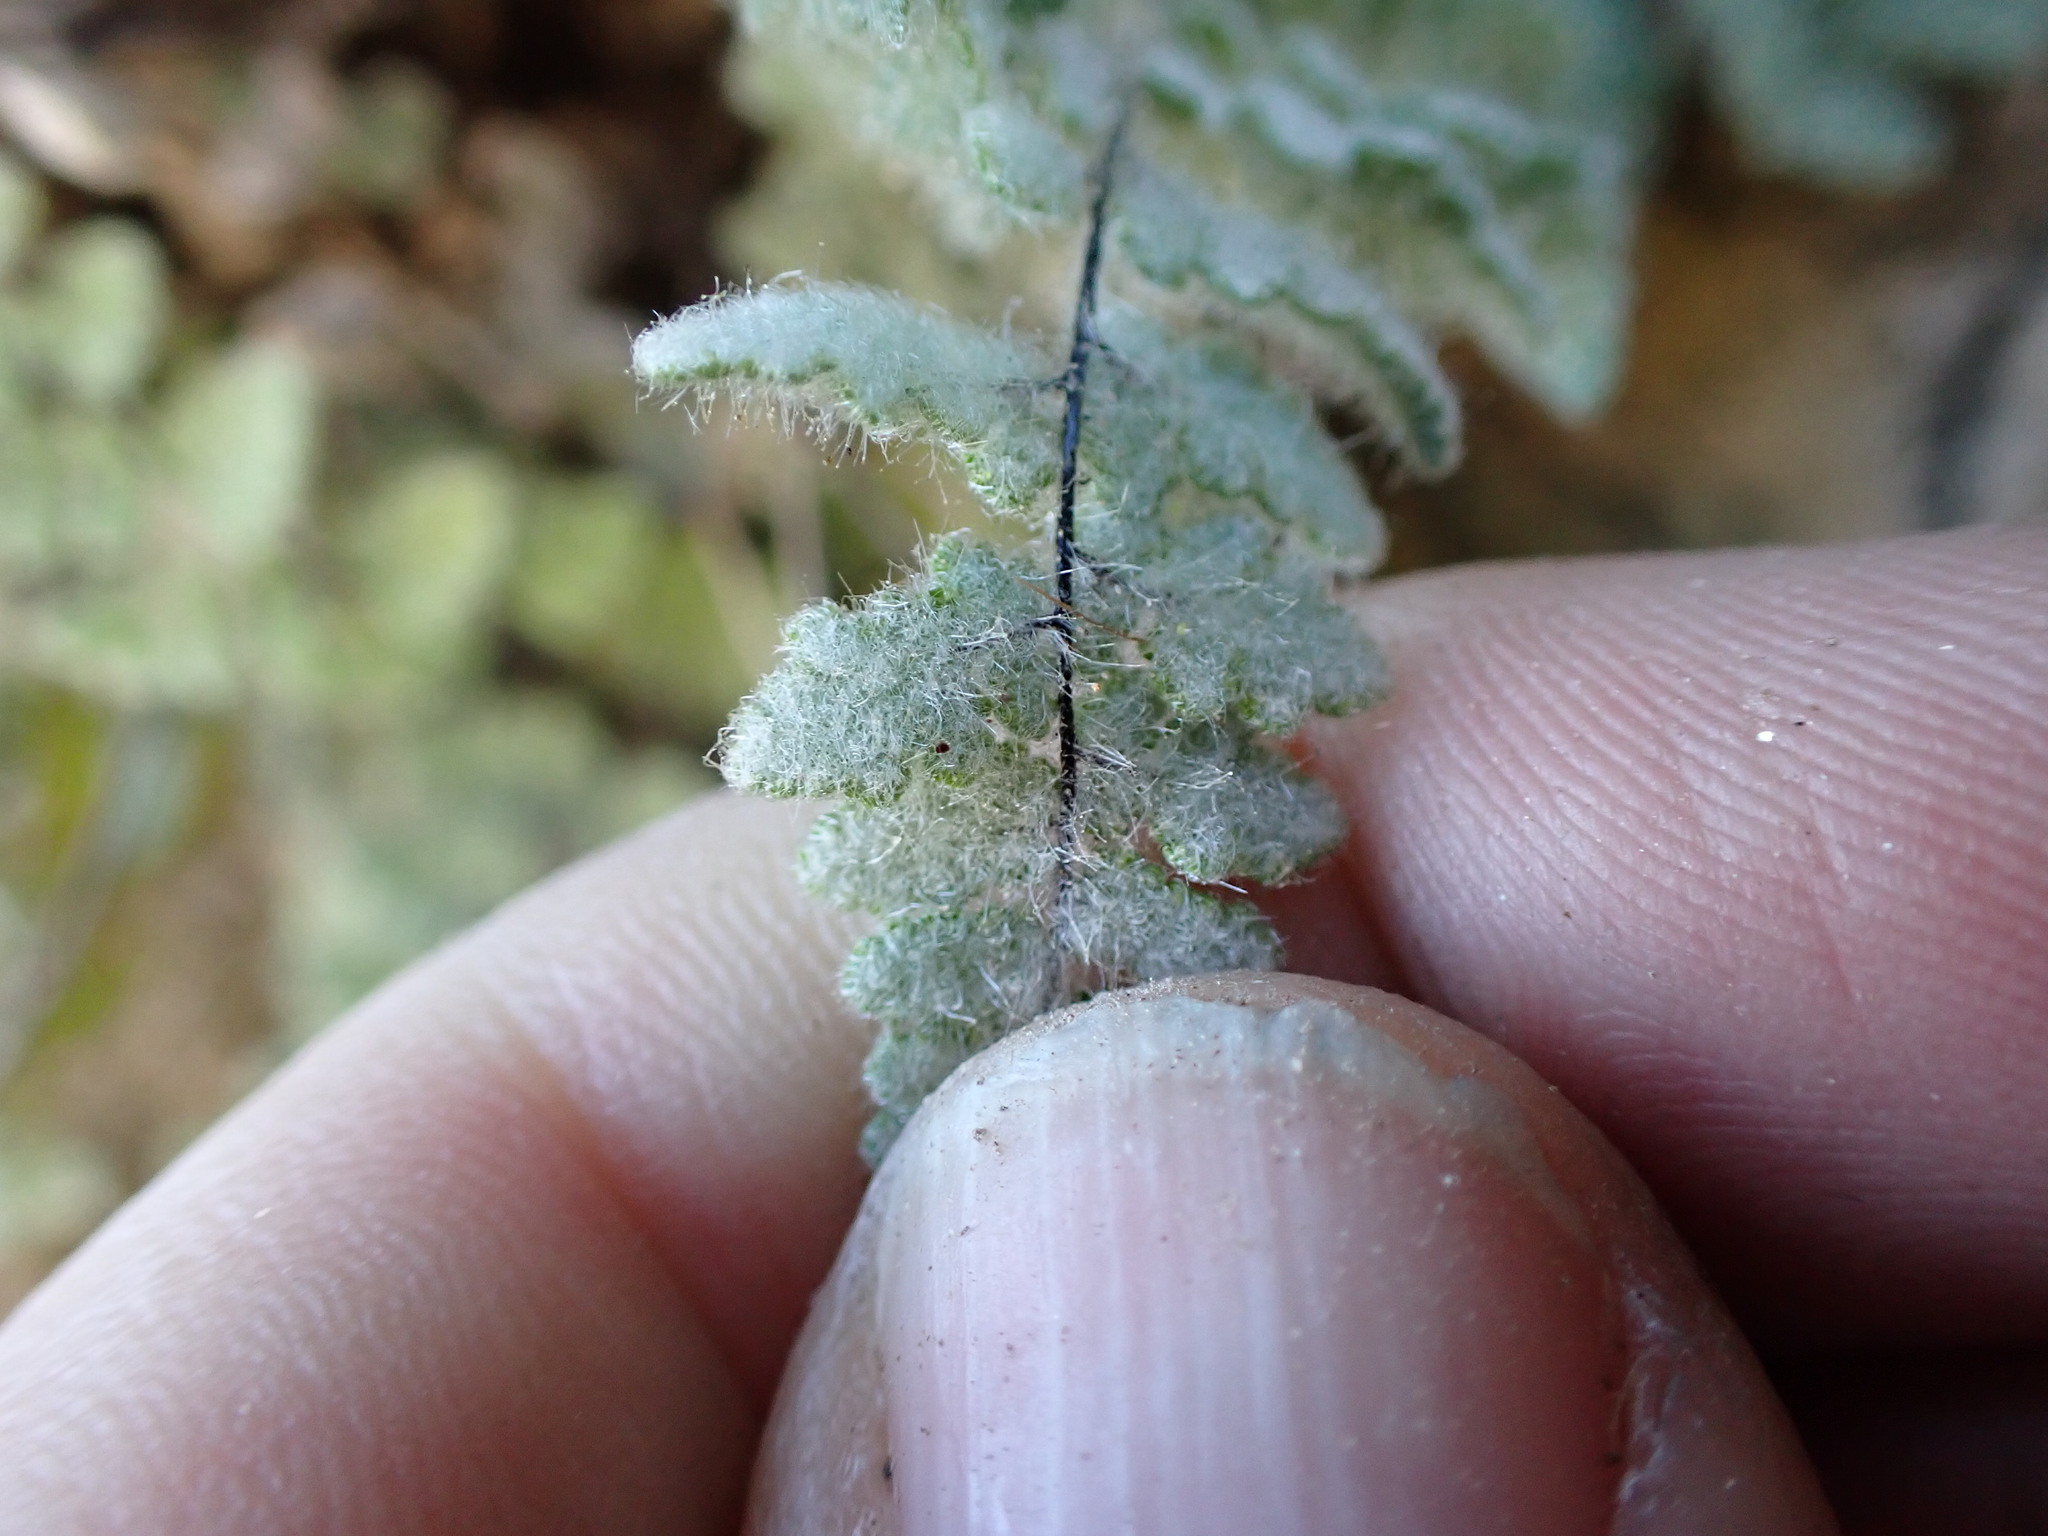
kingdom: Plantae
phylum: Tracheophyta
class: Polypodiopsida
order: Polypodiales
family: Pteridaceae
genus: Myriopteris
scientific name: Myriopteris parryi
